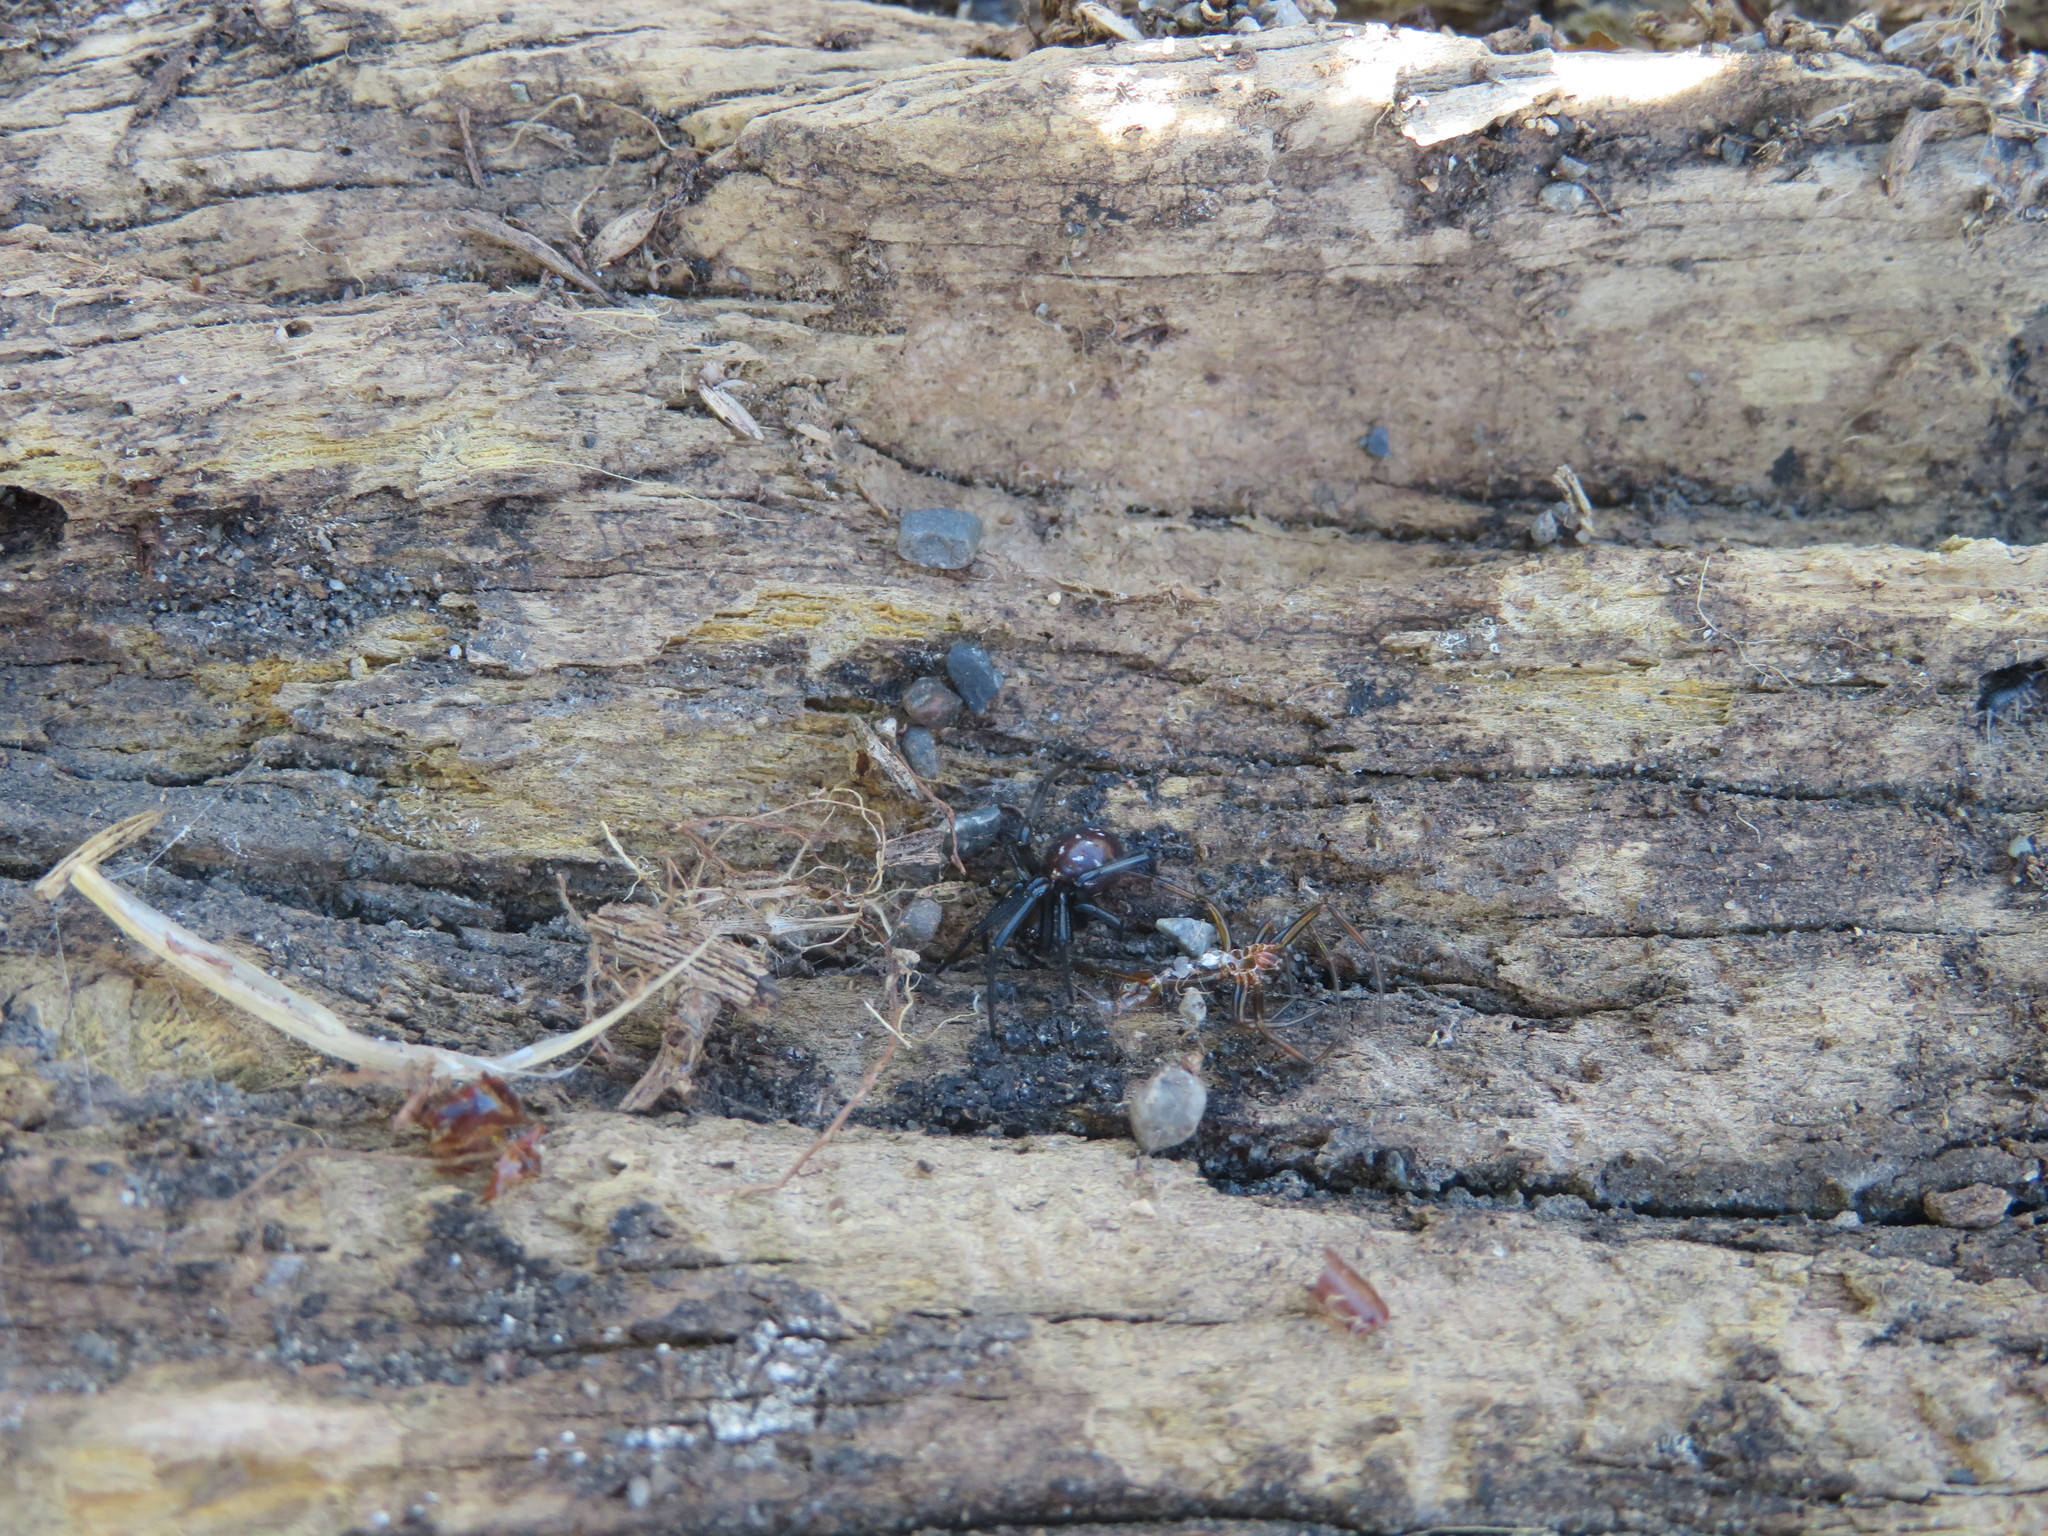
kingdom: Animalia
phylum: Arthropoda
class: Arachnida
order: Araneae
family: Theridiidae
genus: Steatoda
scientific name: Steatoda capensis
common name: Cobweb weaver
